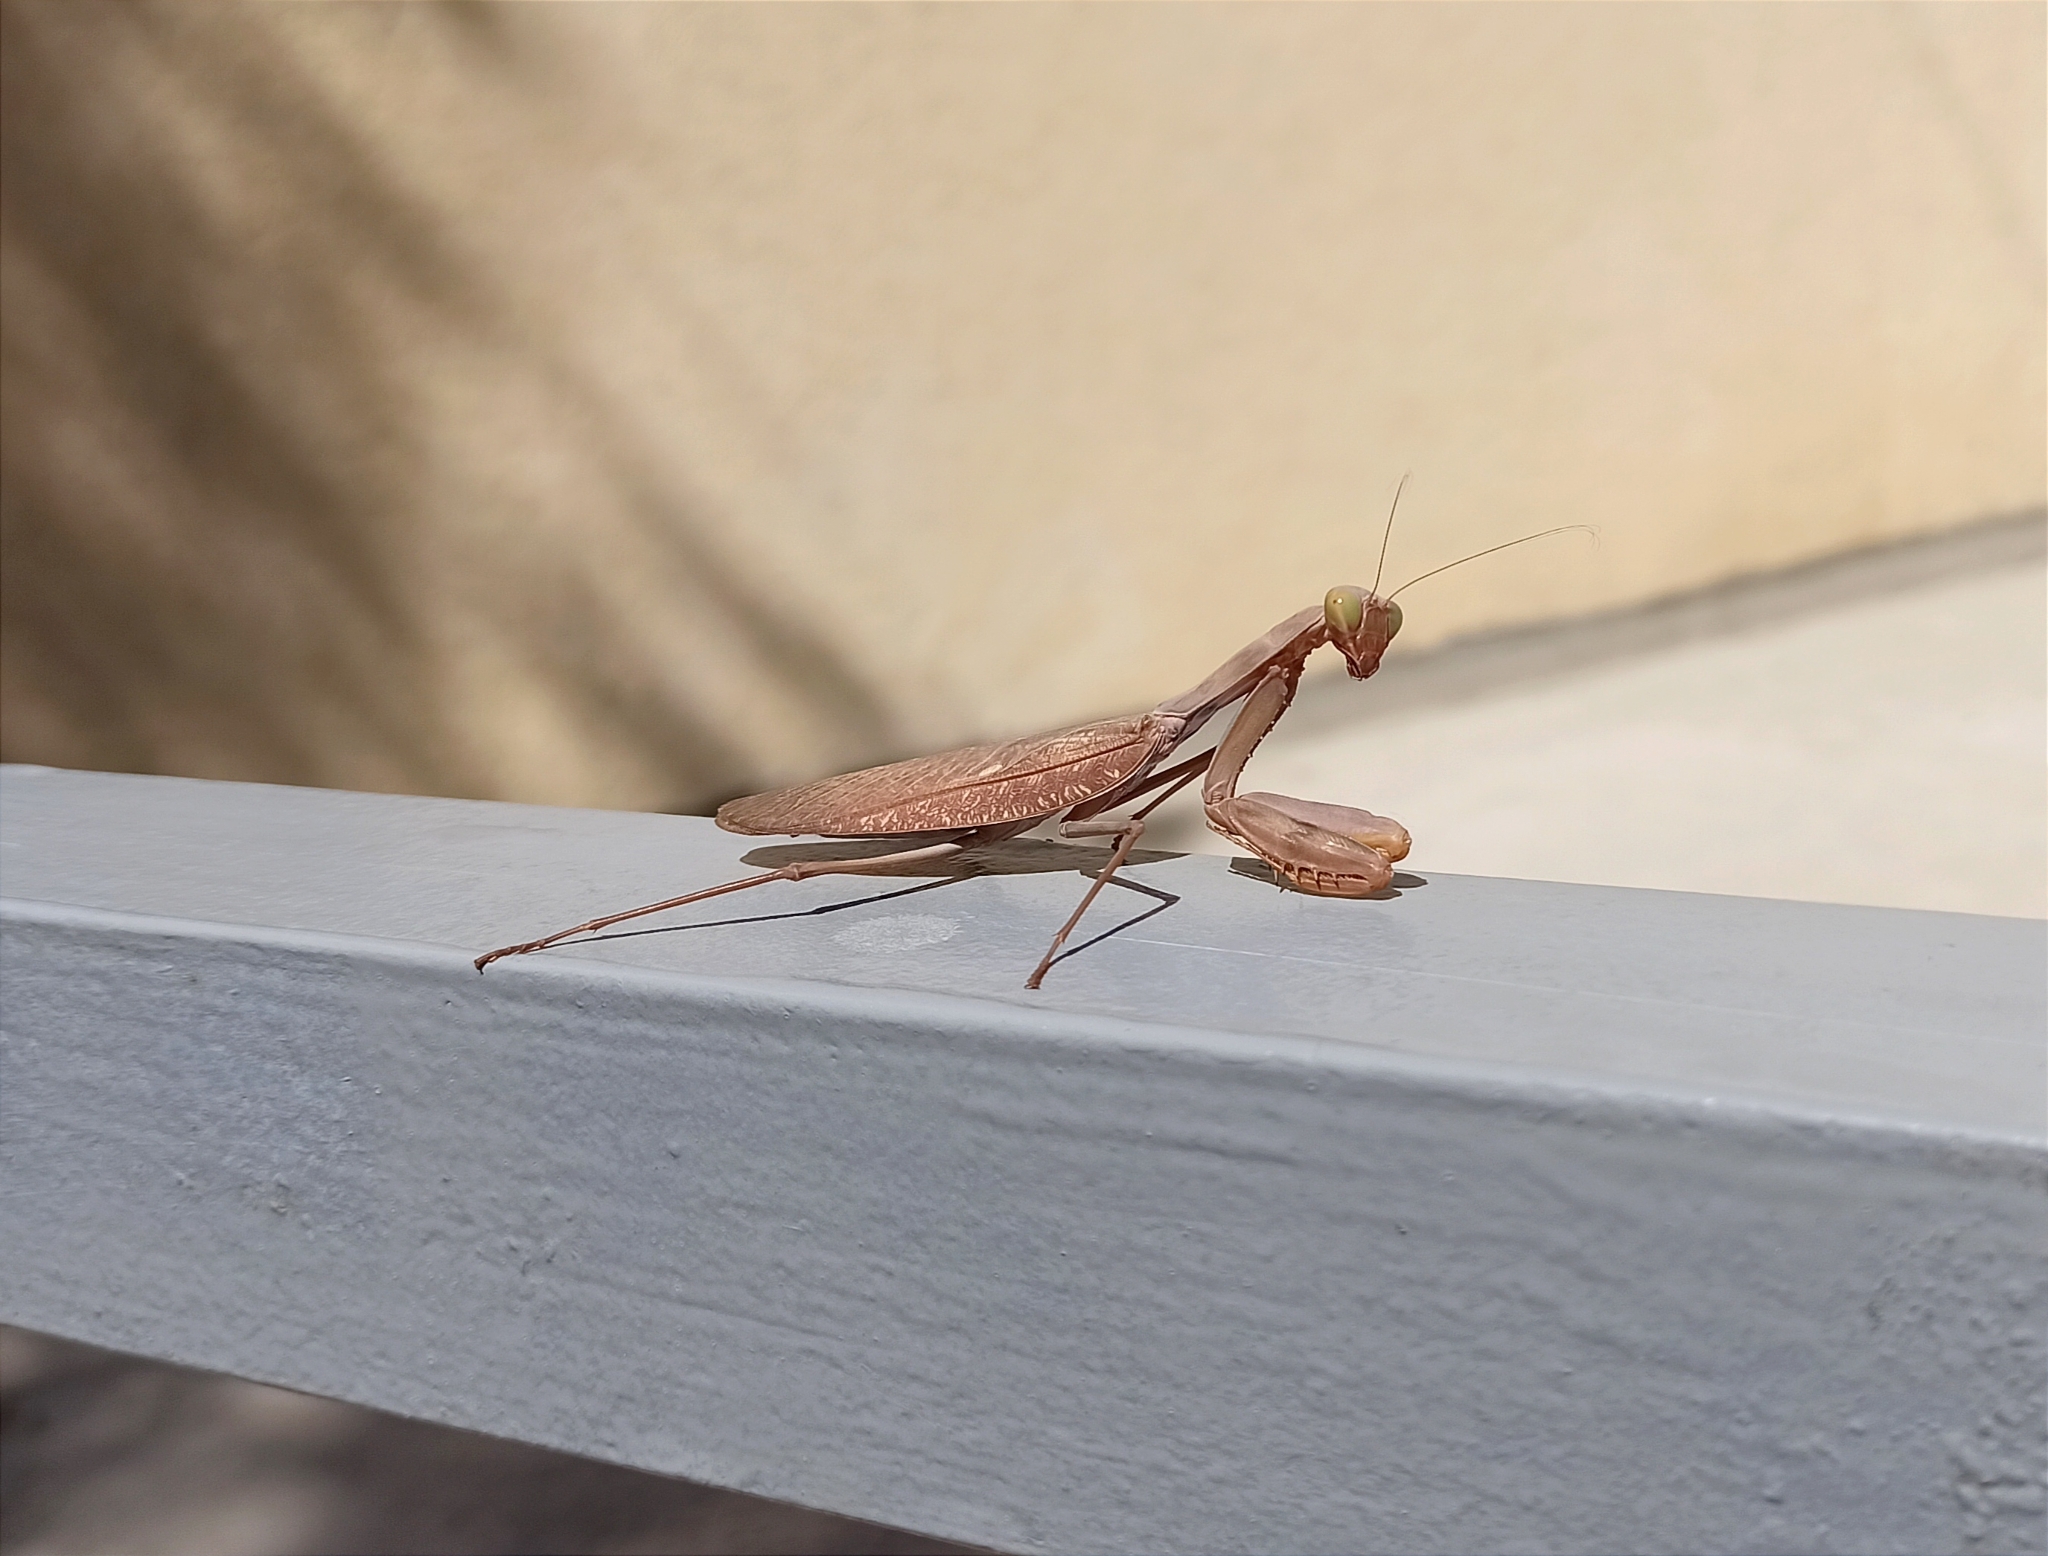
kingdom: Animalia
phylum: Arthropoda
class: Insecta
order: Mantodea
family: Mantidae
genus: Hierodula
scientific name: Hierodula transcaucasica
